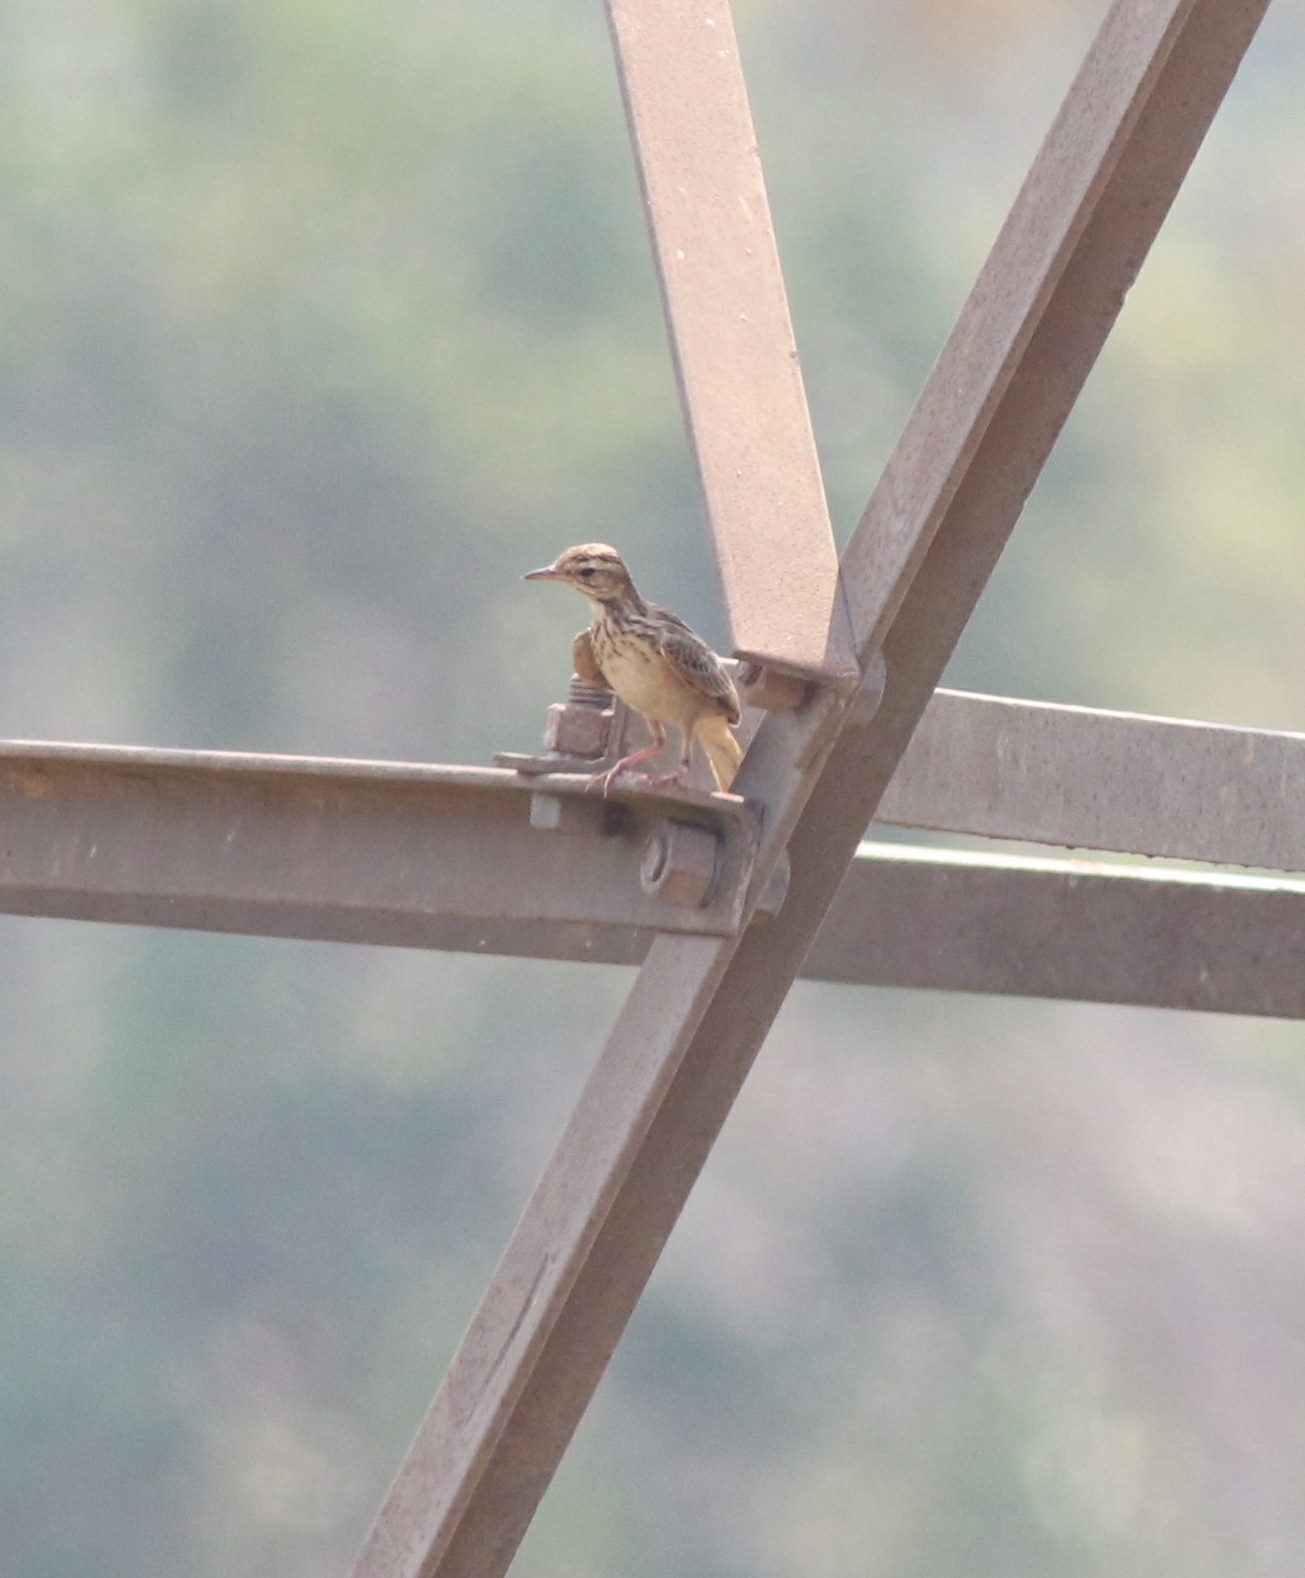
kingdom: Animalia
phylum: Chordata
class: Aves
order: Passeriformes
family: Motacillidae
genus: Anthus
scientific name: Anthus rufulus
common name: Paddyfield pipit
